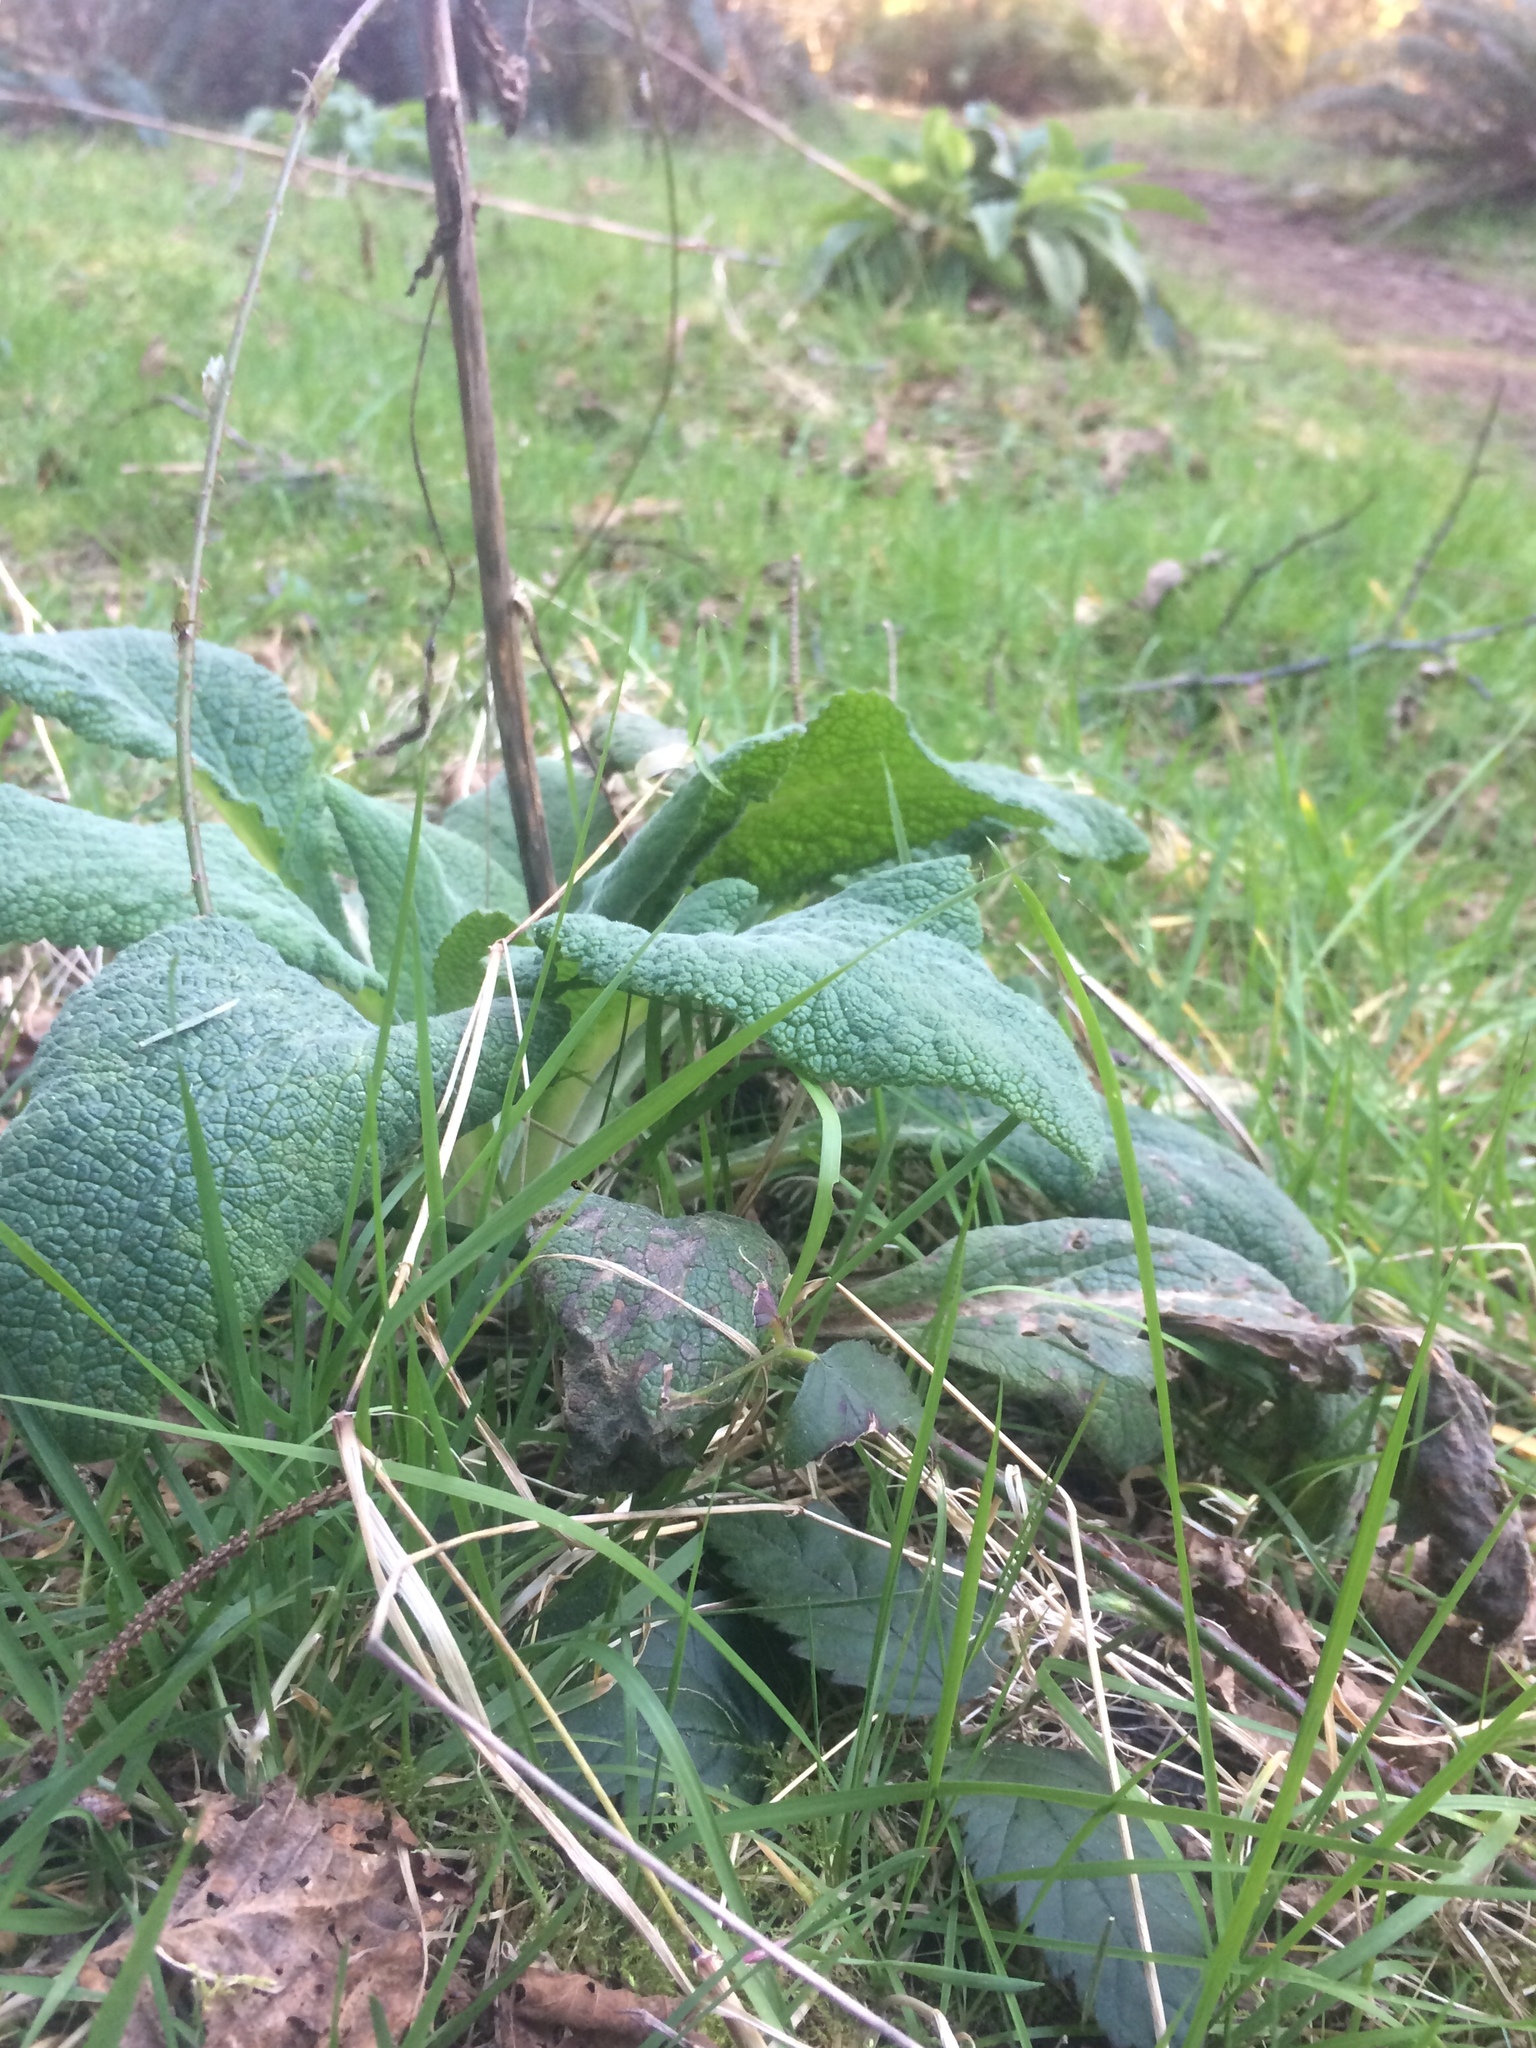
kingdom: Plantae
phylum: Tracheophyta
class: Magnoliopsida
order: Lamiales
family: Plantaginaceae
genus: Digitalis
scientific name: Digitalis purpurea
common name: Foxglove
